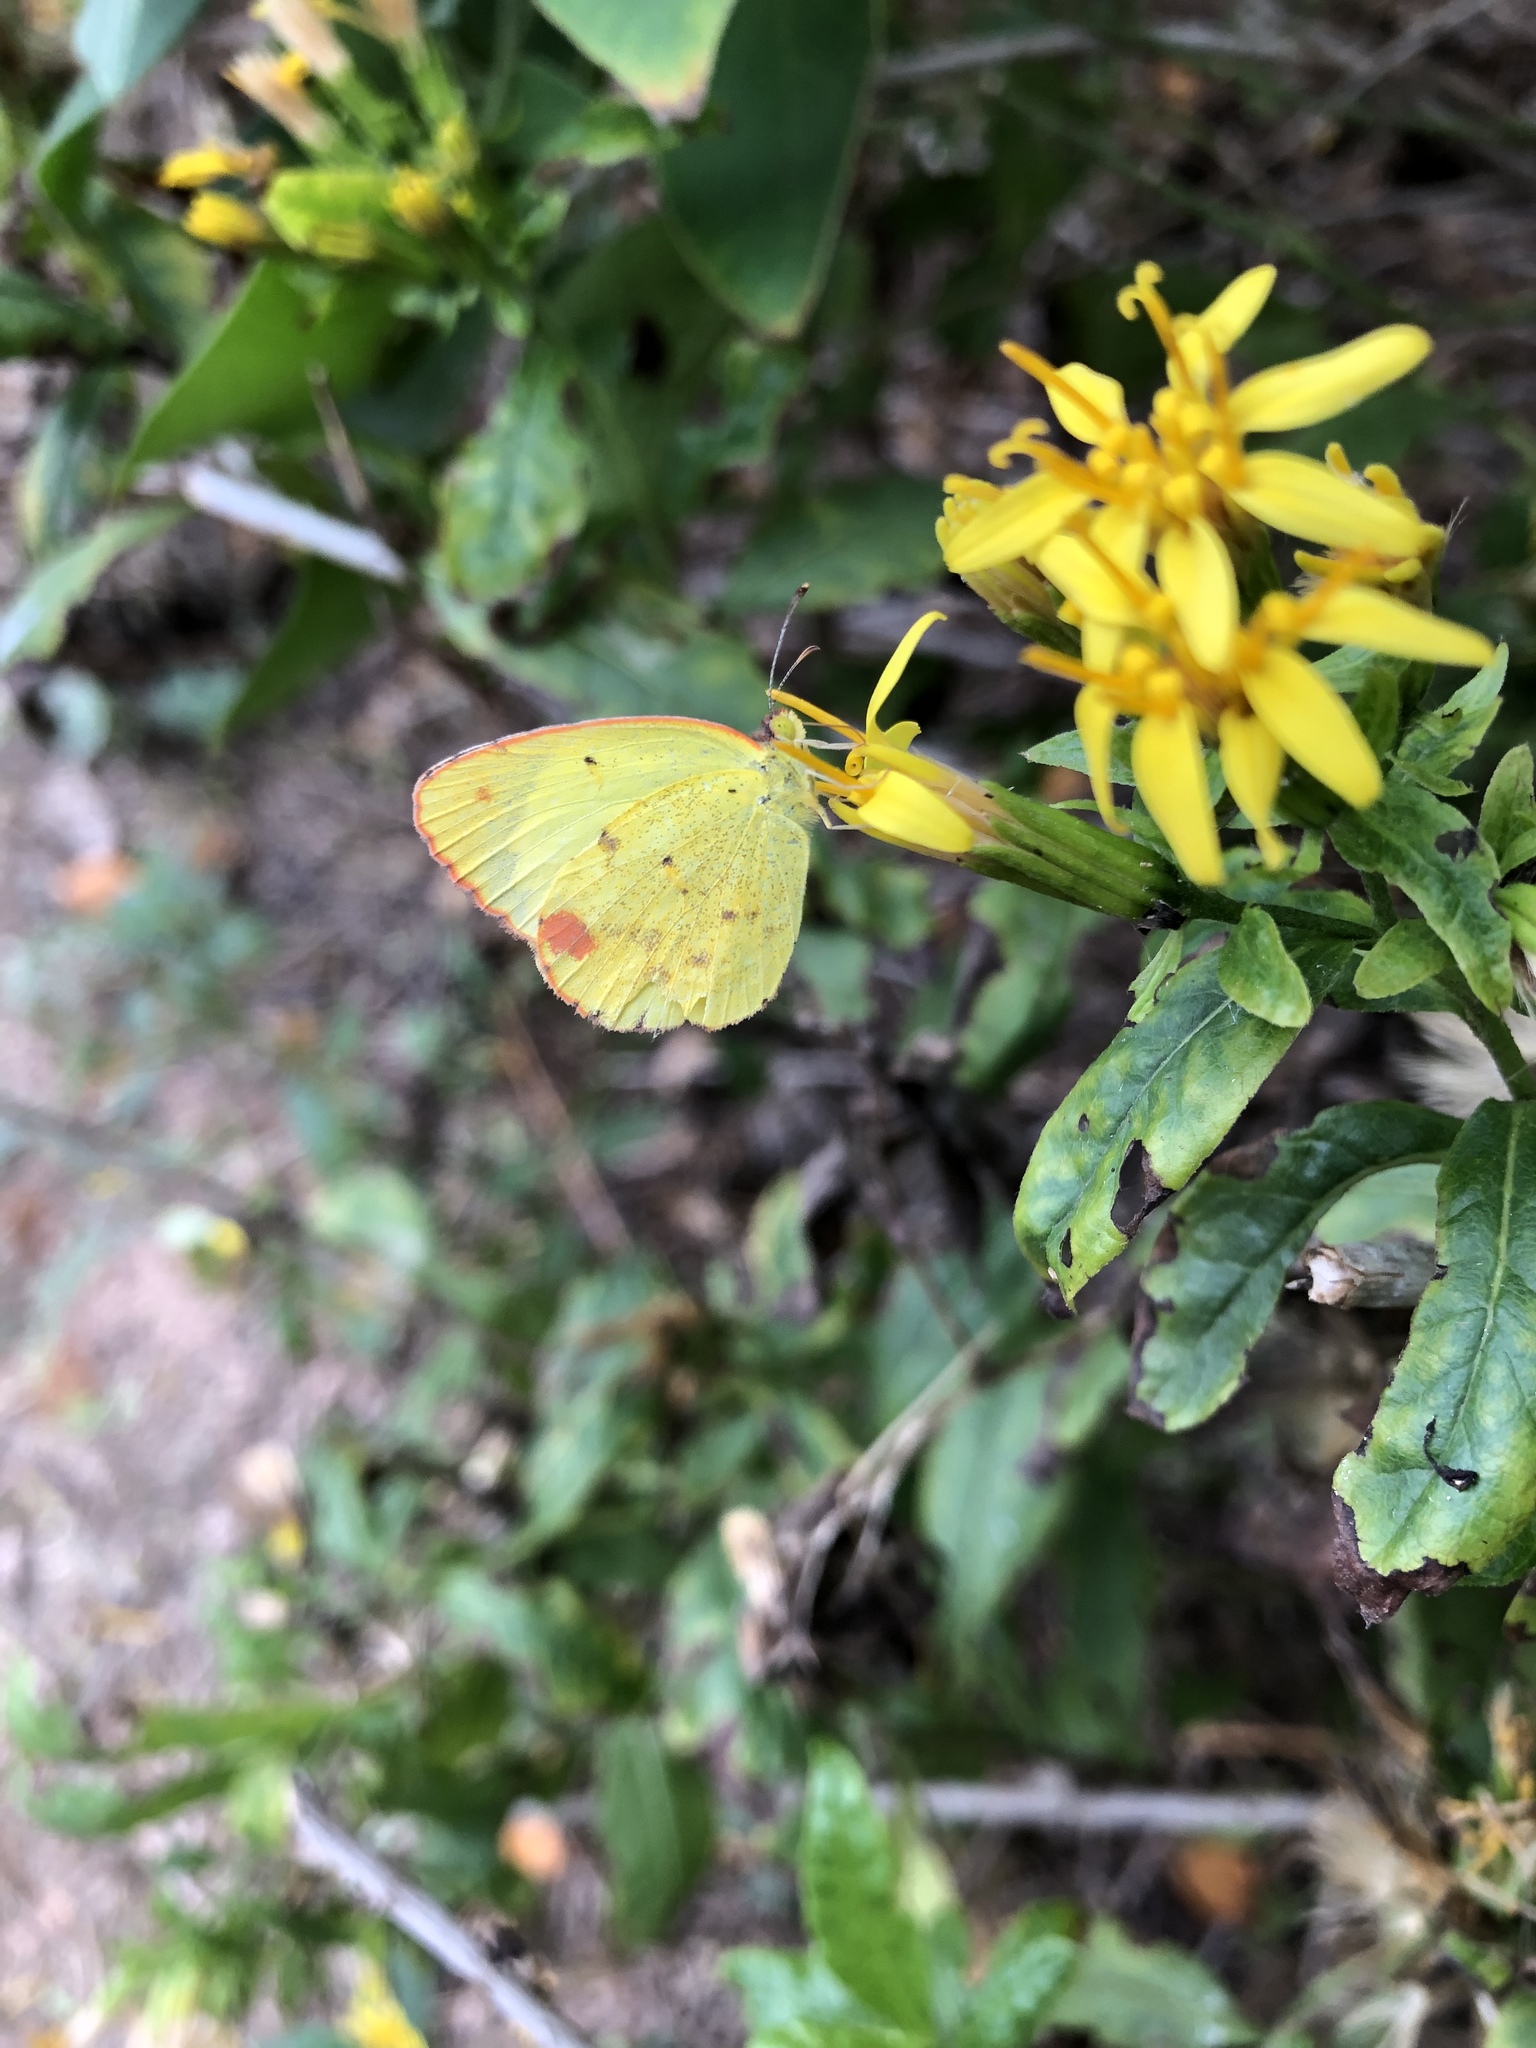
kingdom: Animalia
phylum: Arthropoda
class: Insecta
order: Lepidoptera
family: Pieridae
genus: Pyrisitia
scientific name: Pyrisitia lisa
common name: Little yellow
